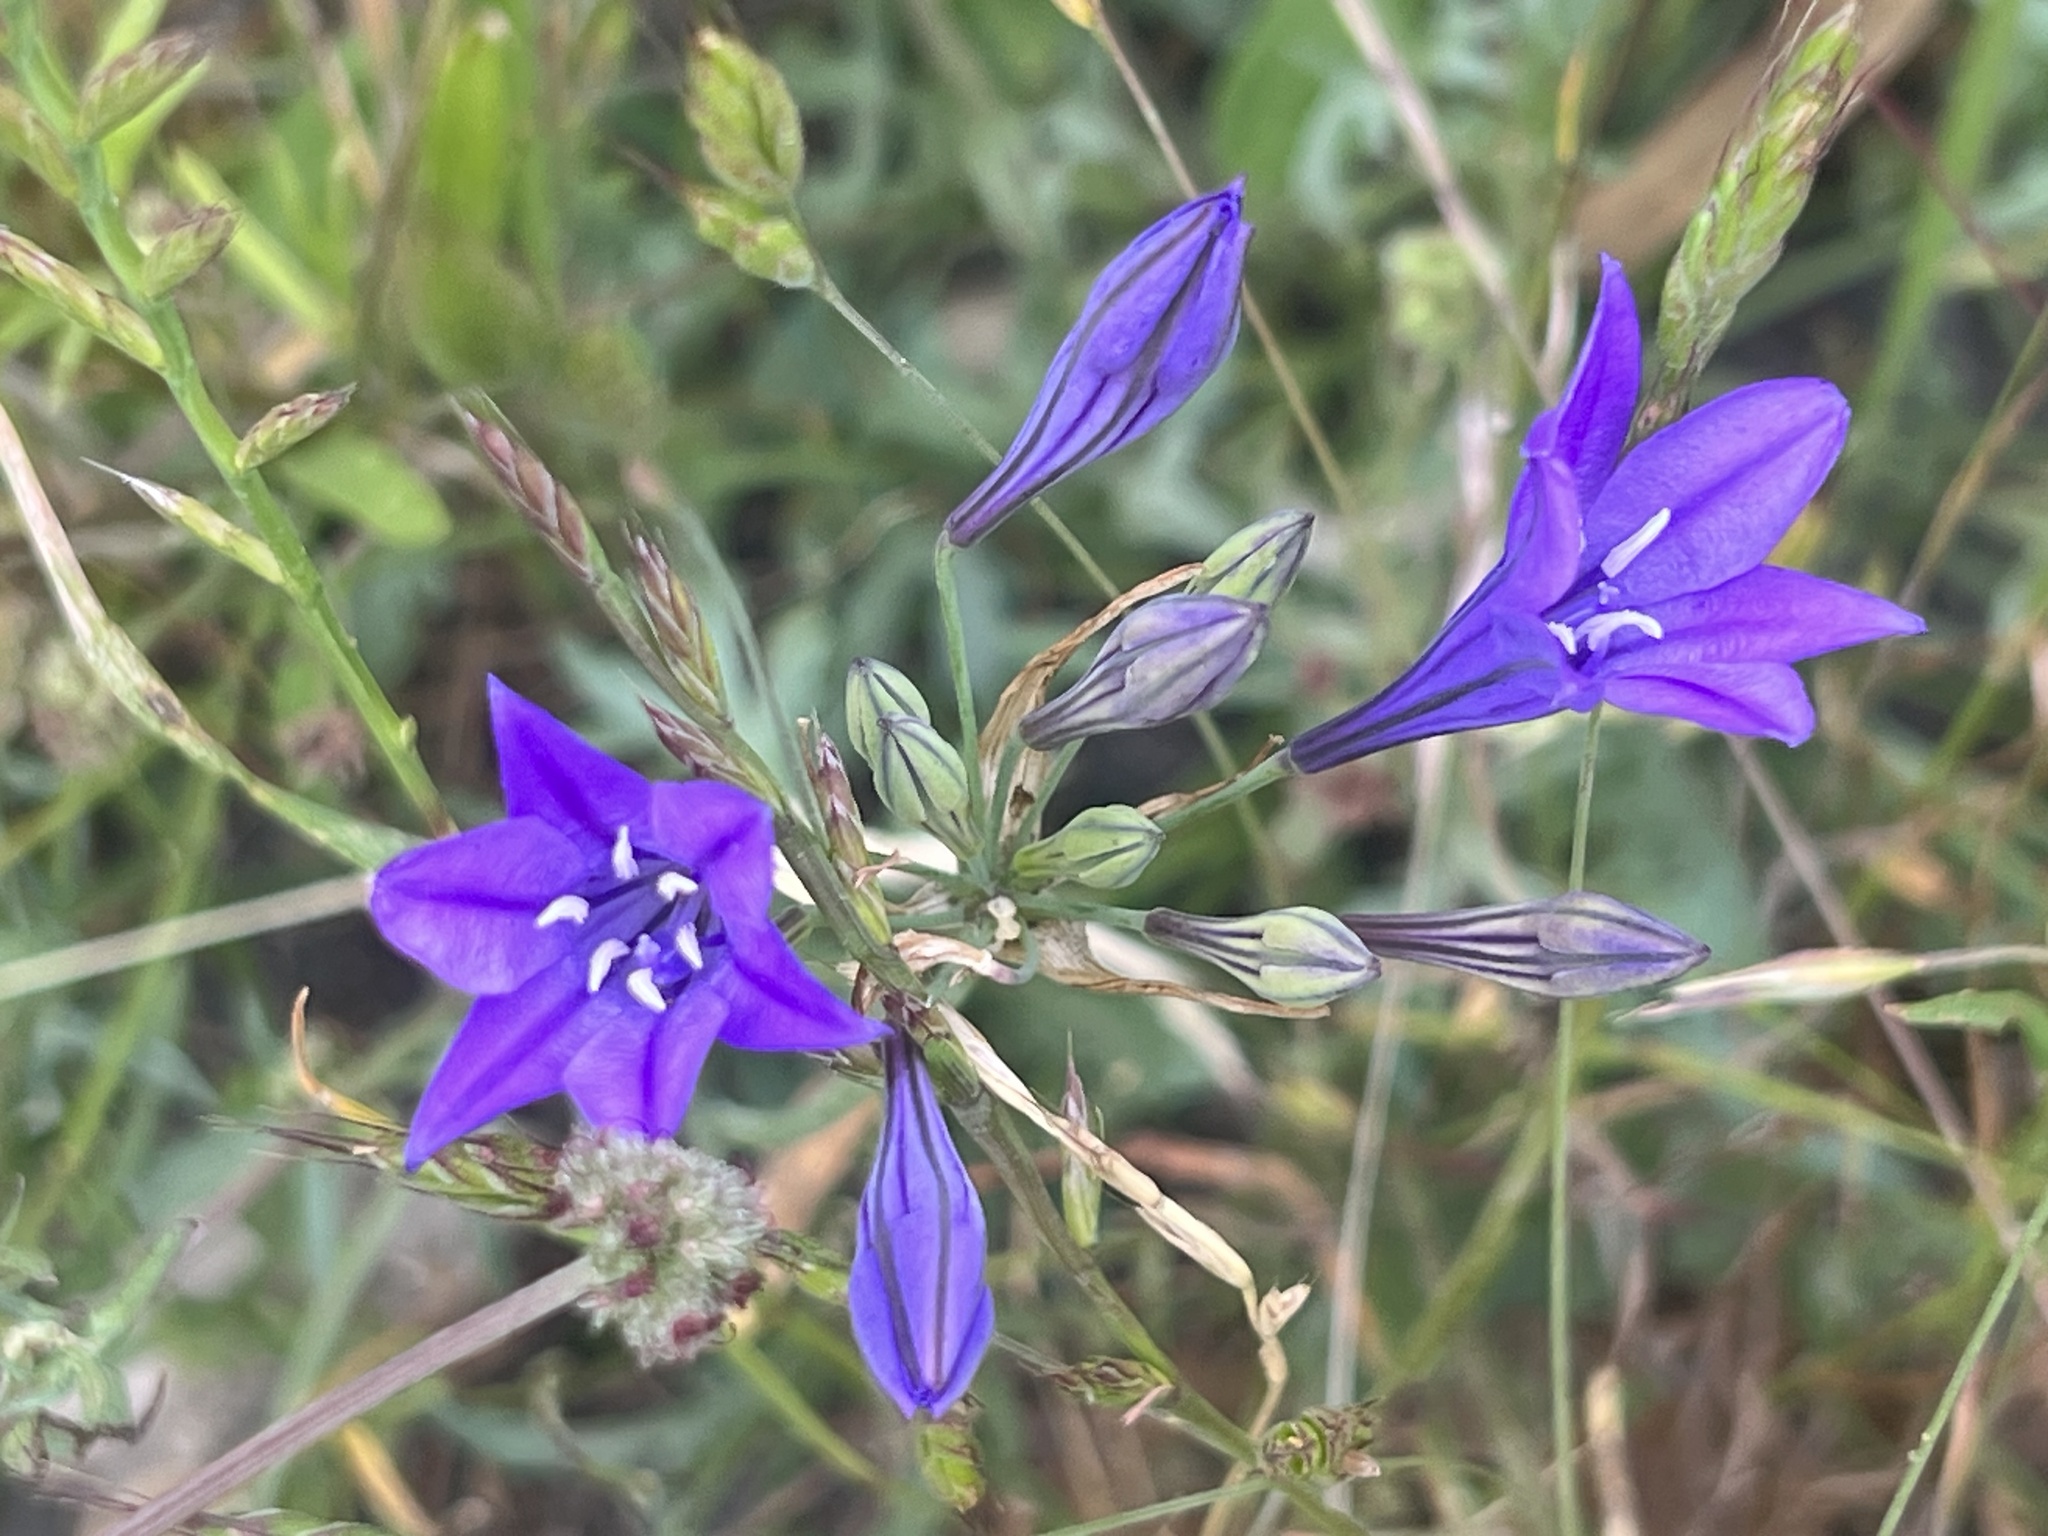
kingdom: Plantae
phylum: Tracheophyta
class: Liliopsida
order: Asparagales
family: Asparagaceae
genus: Triteleia
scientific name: Triteleia laxa
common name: Triplet-lily
